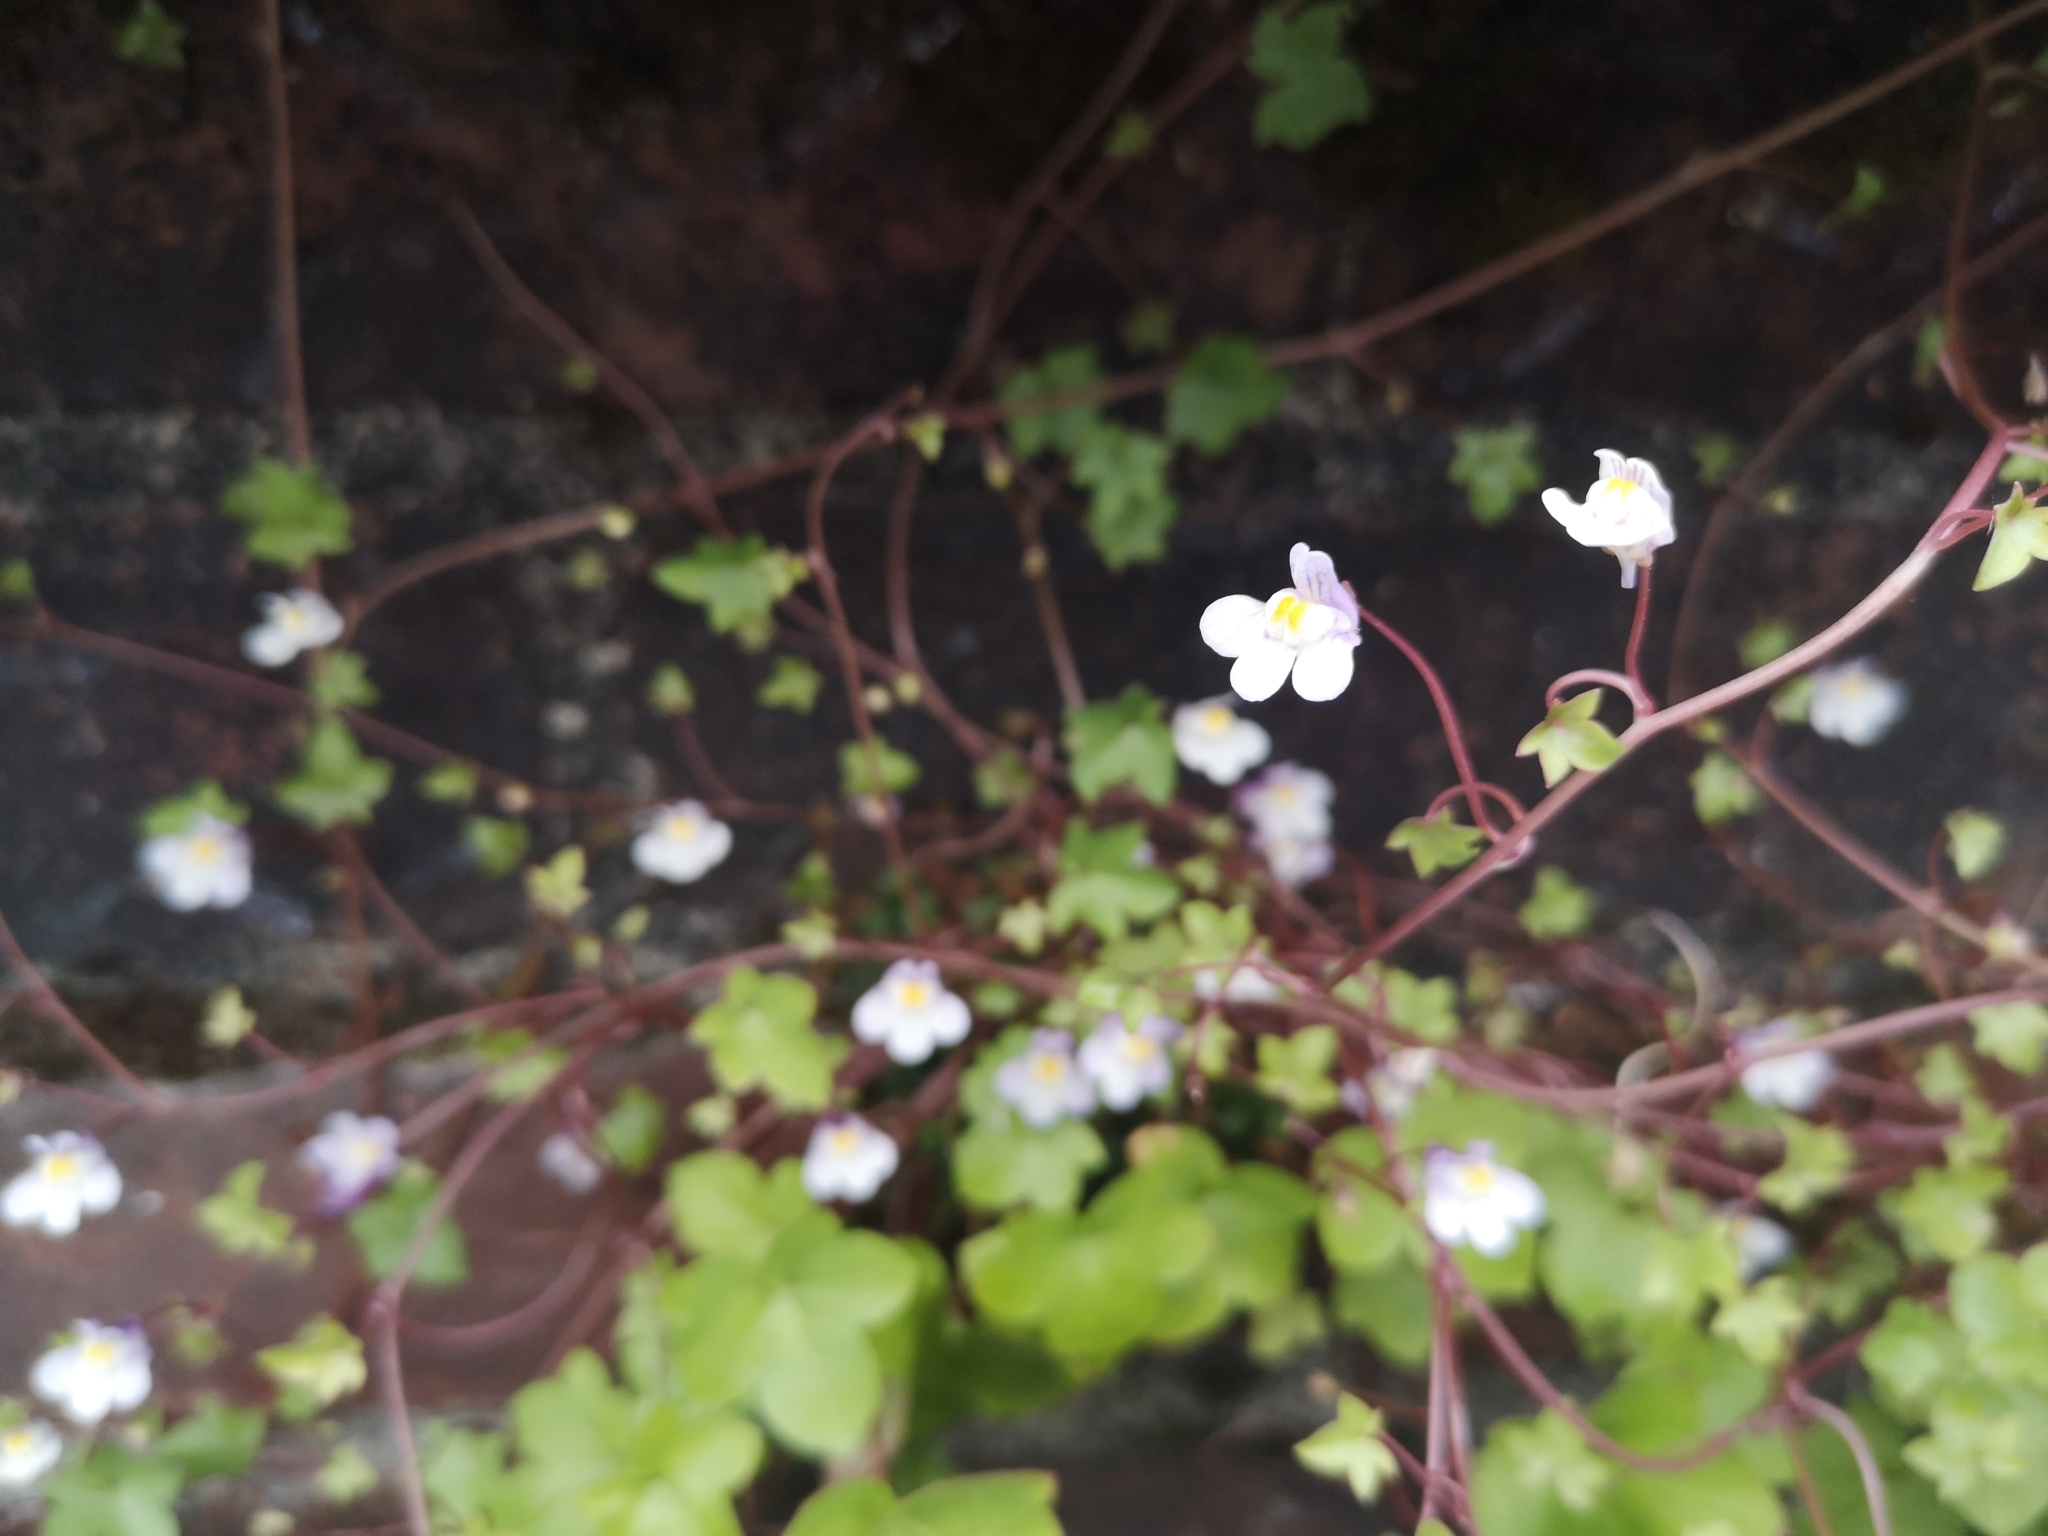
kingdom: Plantae
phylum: Tracheophyta
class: Magnoliopsida
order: Lamiales
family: Plantaginaceae
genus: Cymbalaria
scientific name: Cymbalaria muralis
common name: Ivy-leaved toadflax
